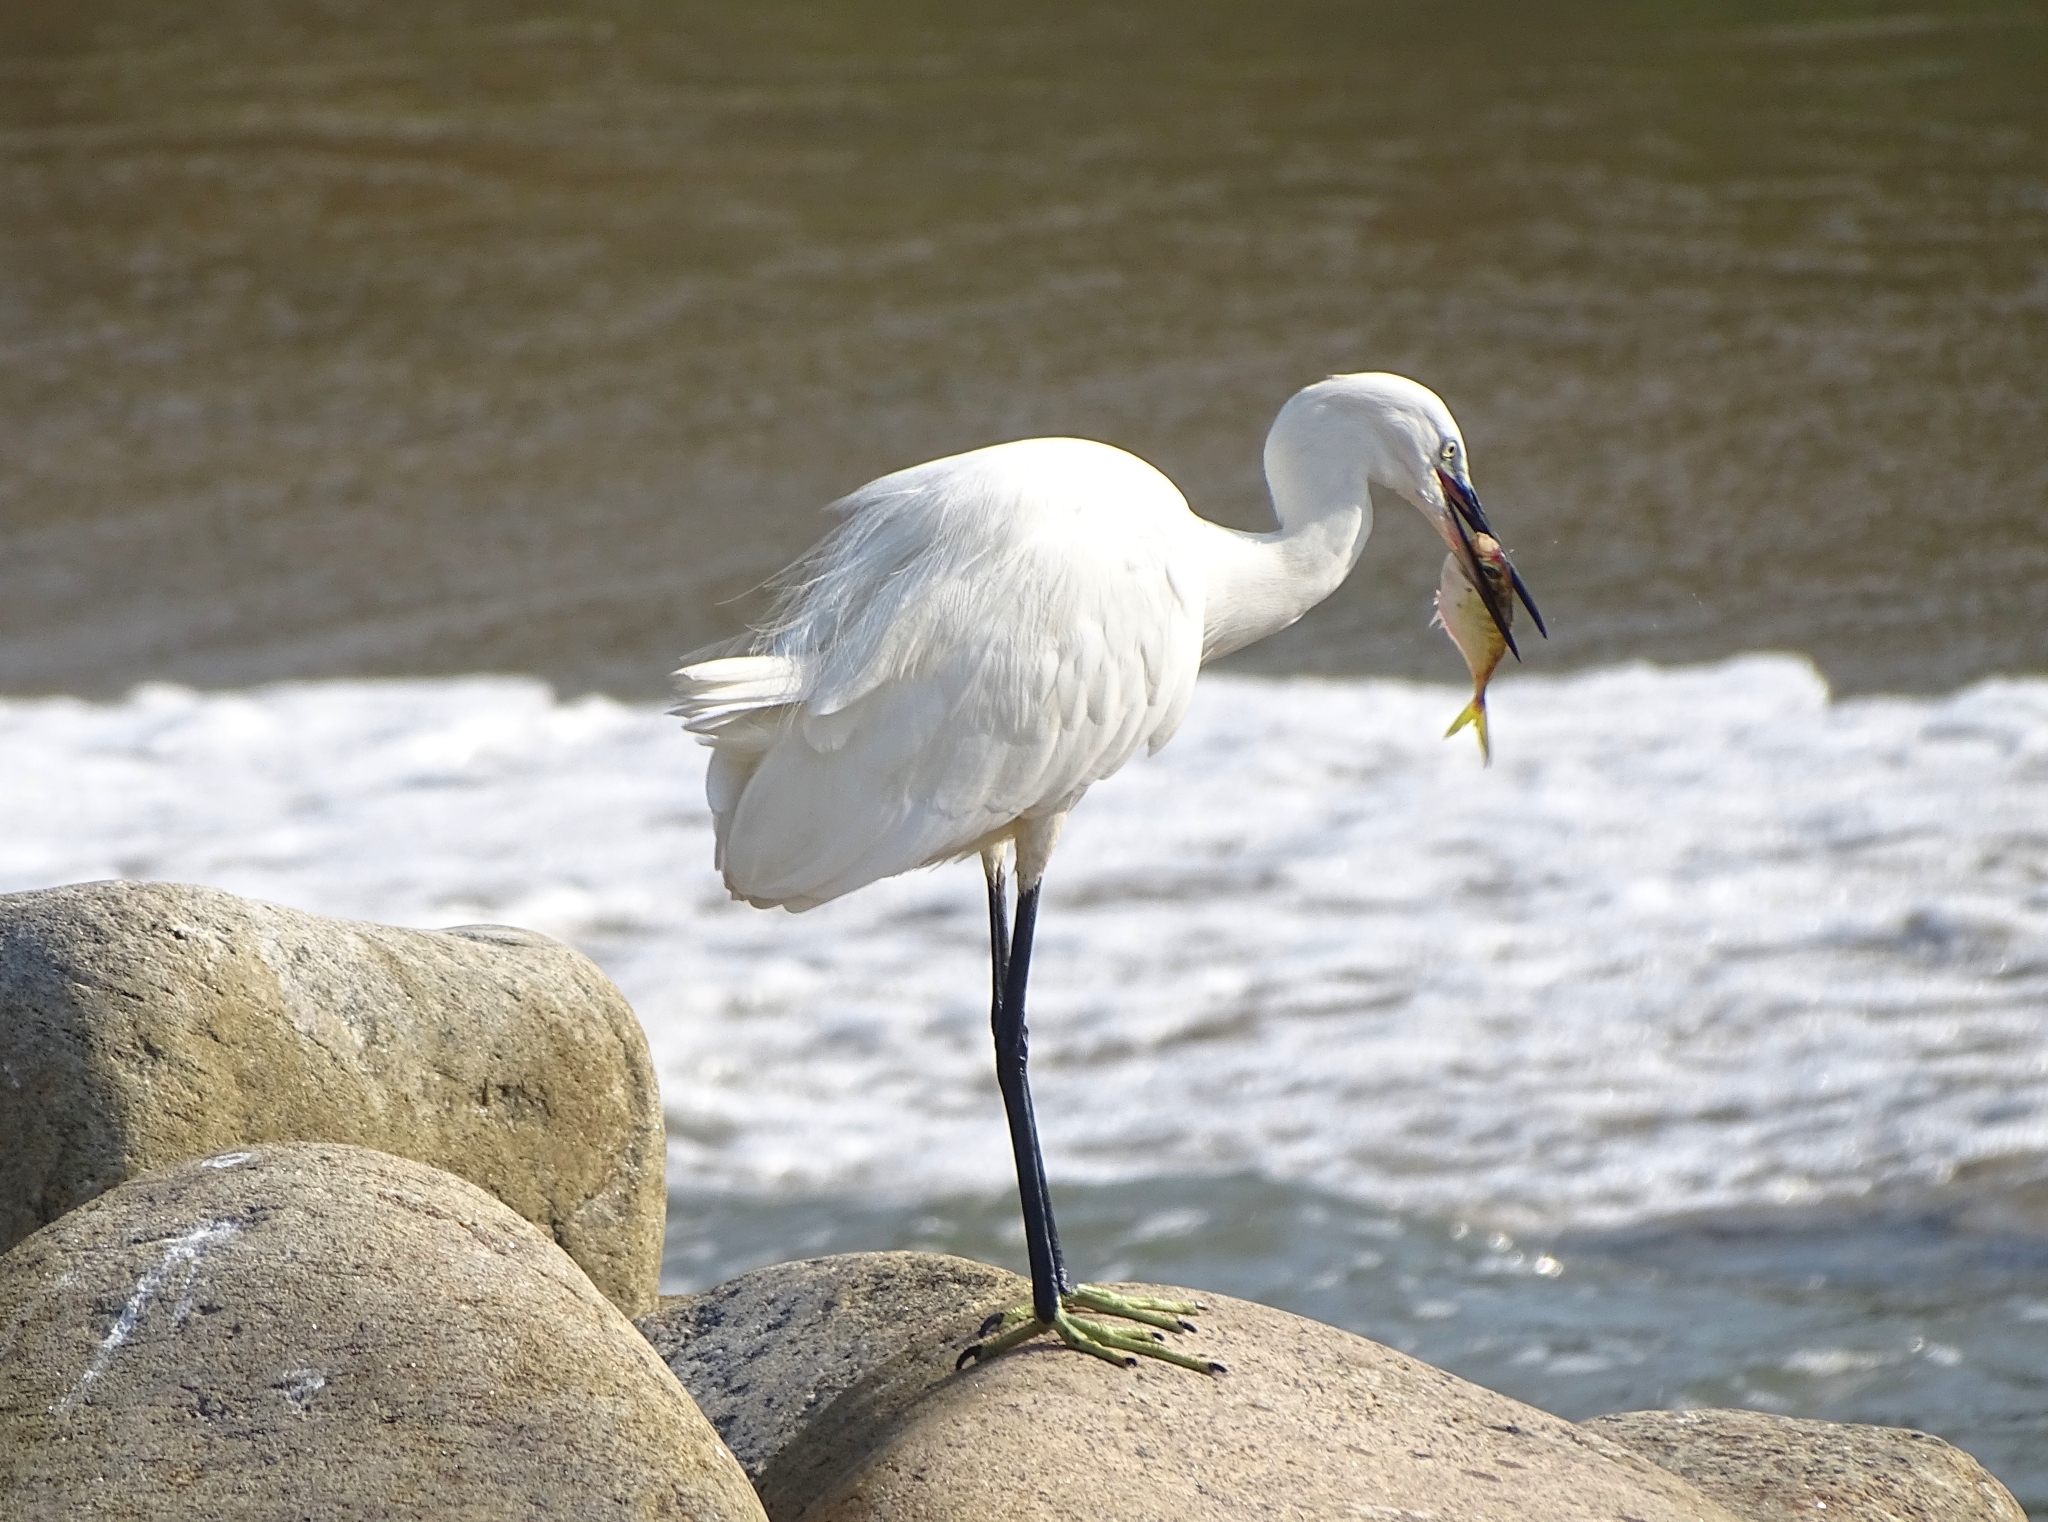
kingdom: Animalia
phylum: Chordata
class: Aves
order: Pelecaniformes
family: Ardeidae
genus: Egretta
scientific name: Egretta garzetta
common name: Little egret
